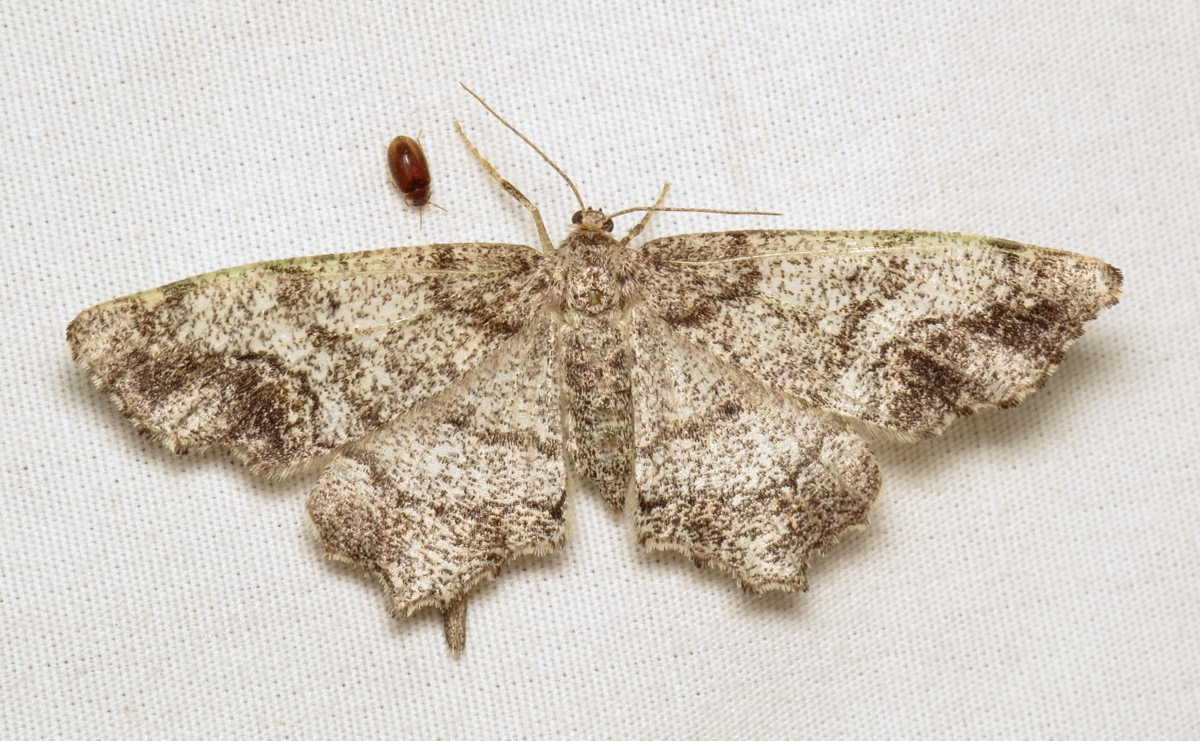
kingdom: Animalia
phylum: Arthropoda
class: Insecta
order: Lepidoptera
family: Geometridae
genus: Hypagyrtis
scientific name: Hypagyrtis piniata
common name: Pine measuringworm
